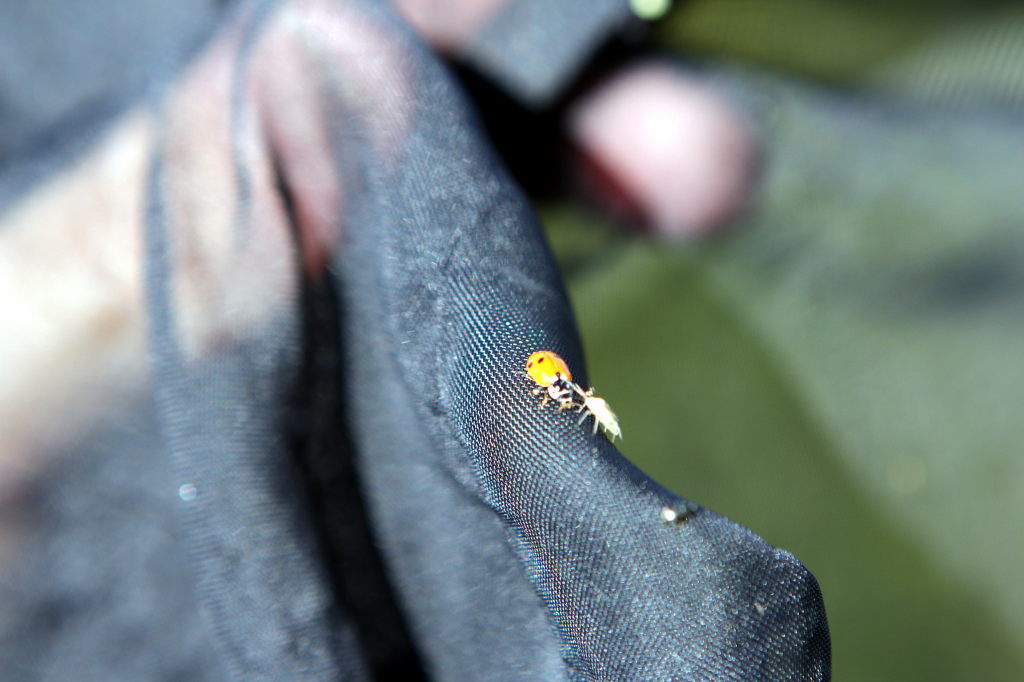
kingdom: Animalia
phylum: Arthropoda
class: Insecta
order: Coleoptera
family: Coccinellidae
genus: Hippodamia
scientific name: Hippodamia variegata
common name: Ladybird beetle
